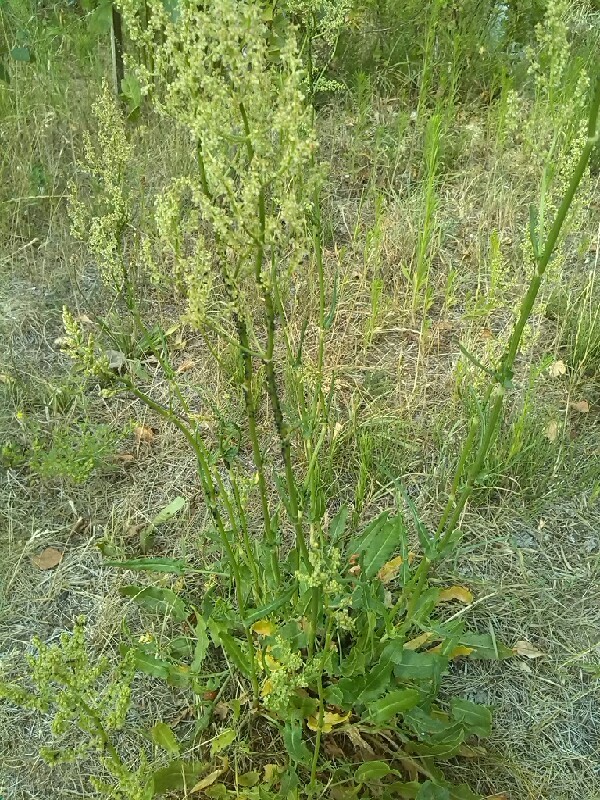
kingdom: Plantae
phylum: Tracheophyta
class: Magnoliopsida
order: Caryophyllales
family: Polygonaceae
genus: Rumex
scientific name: Rumex thyrsiflorus
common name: Garden sorrel
